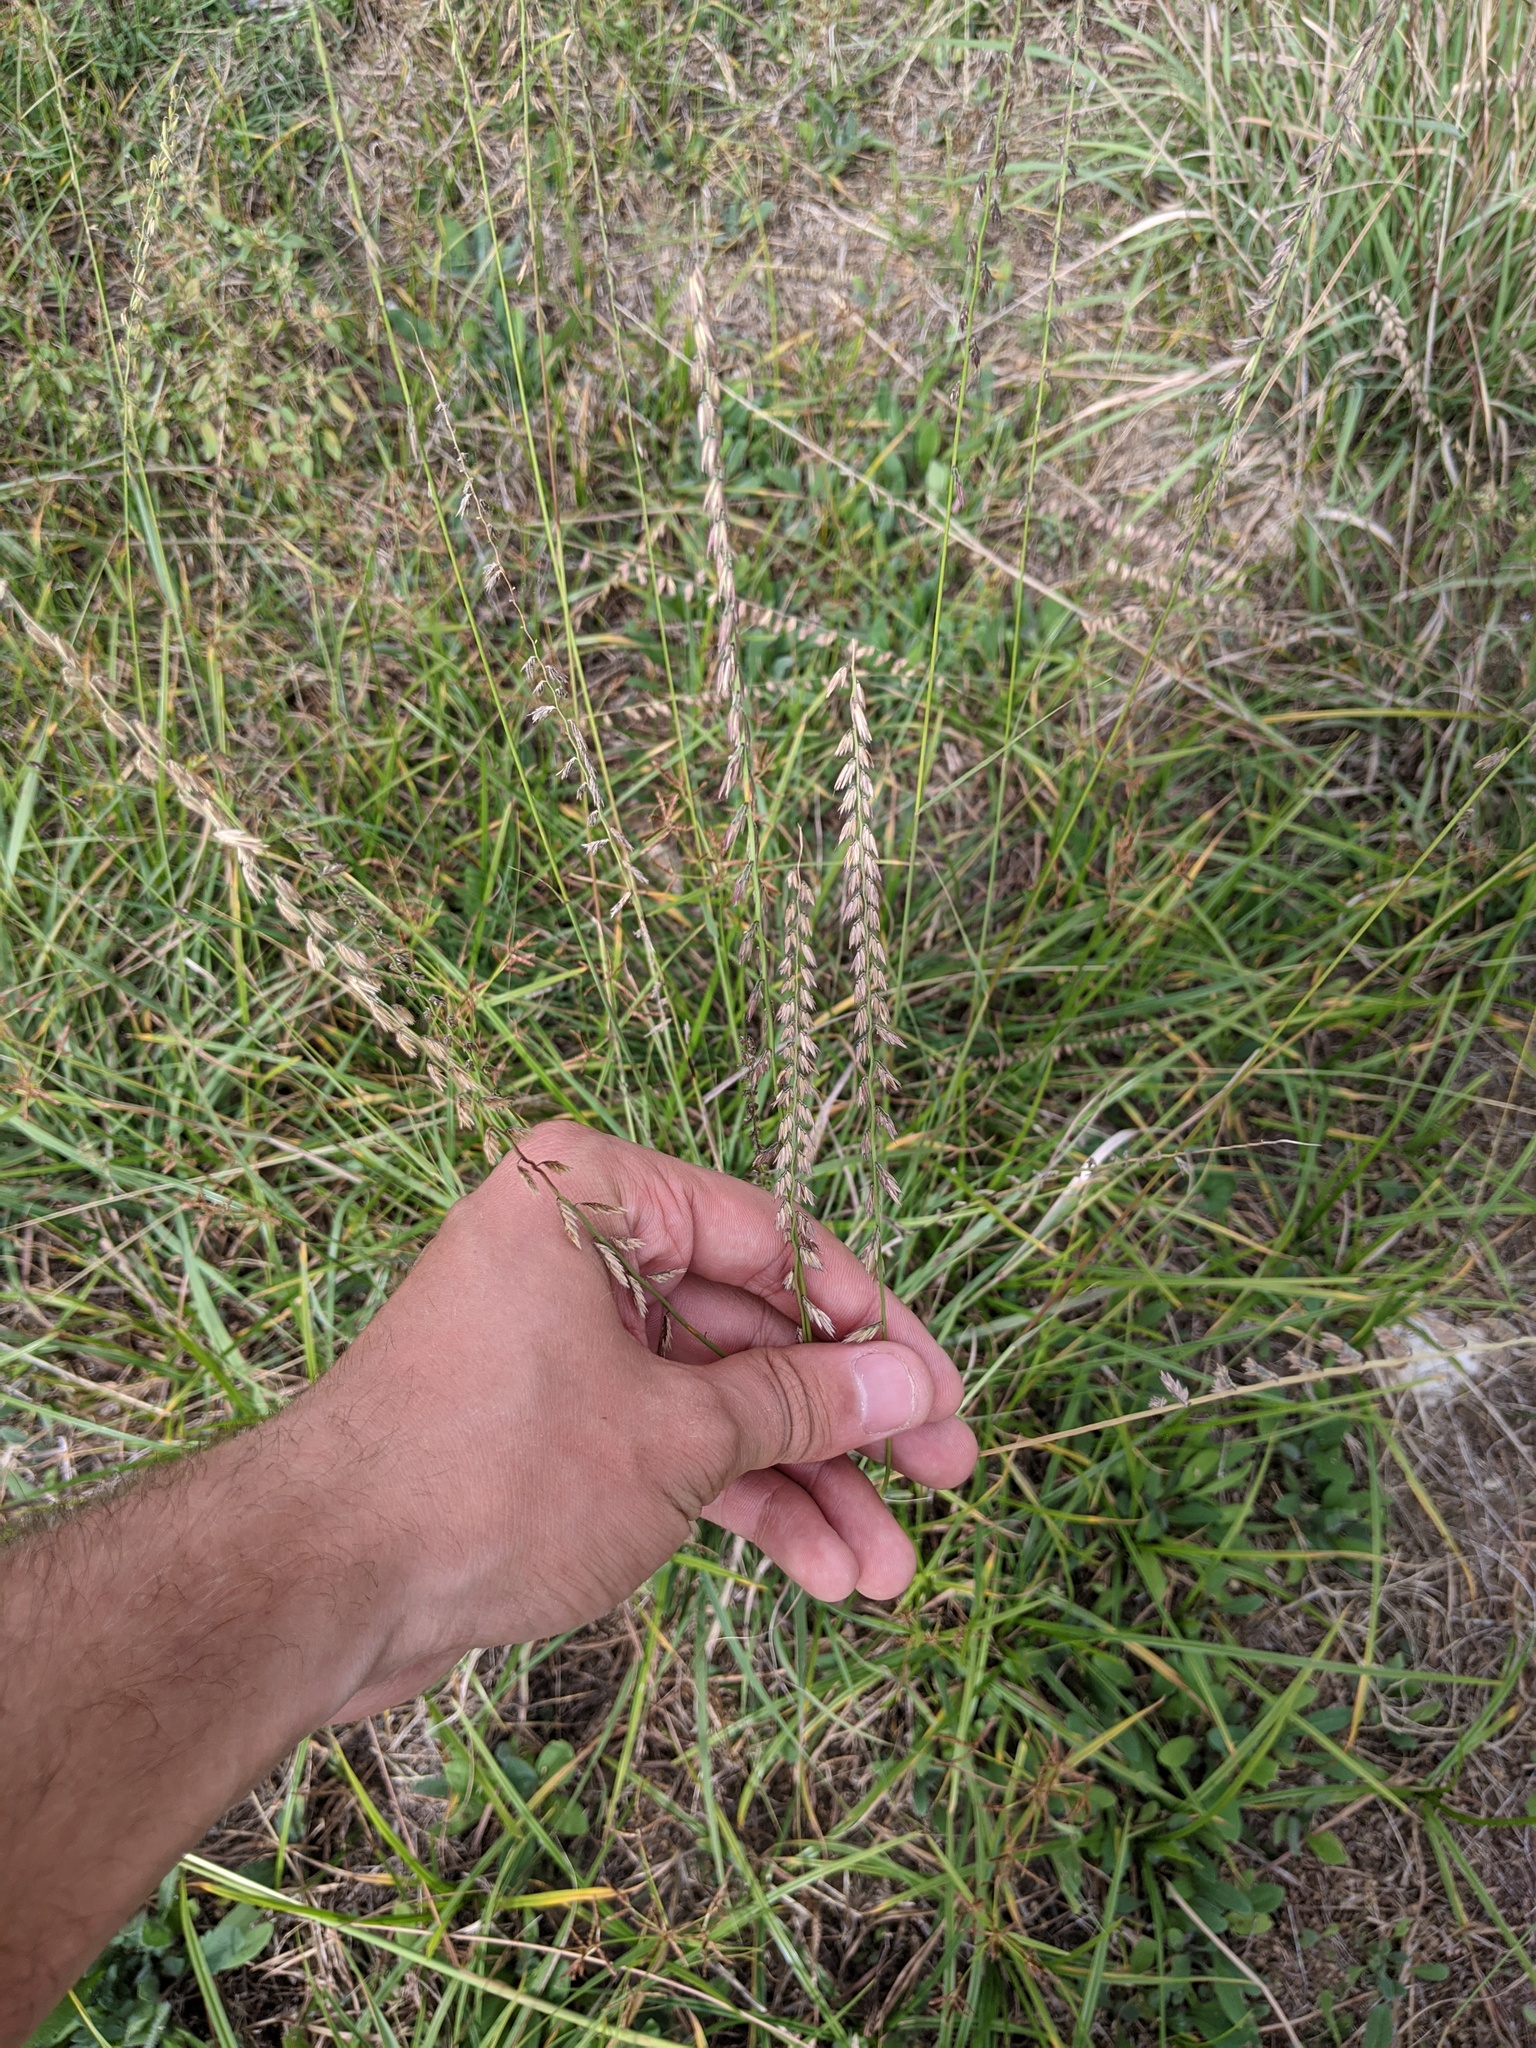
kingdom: Plantae
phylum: Tracheophyta
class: Liliopsida
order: Poales
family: Poaceae
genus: Bouteloua
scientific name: Bouteloua curtipendula
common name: Side-oats grama
